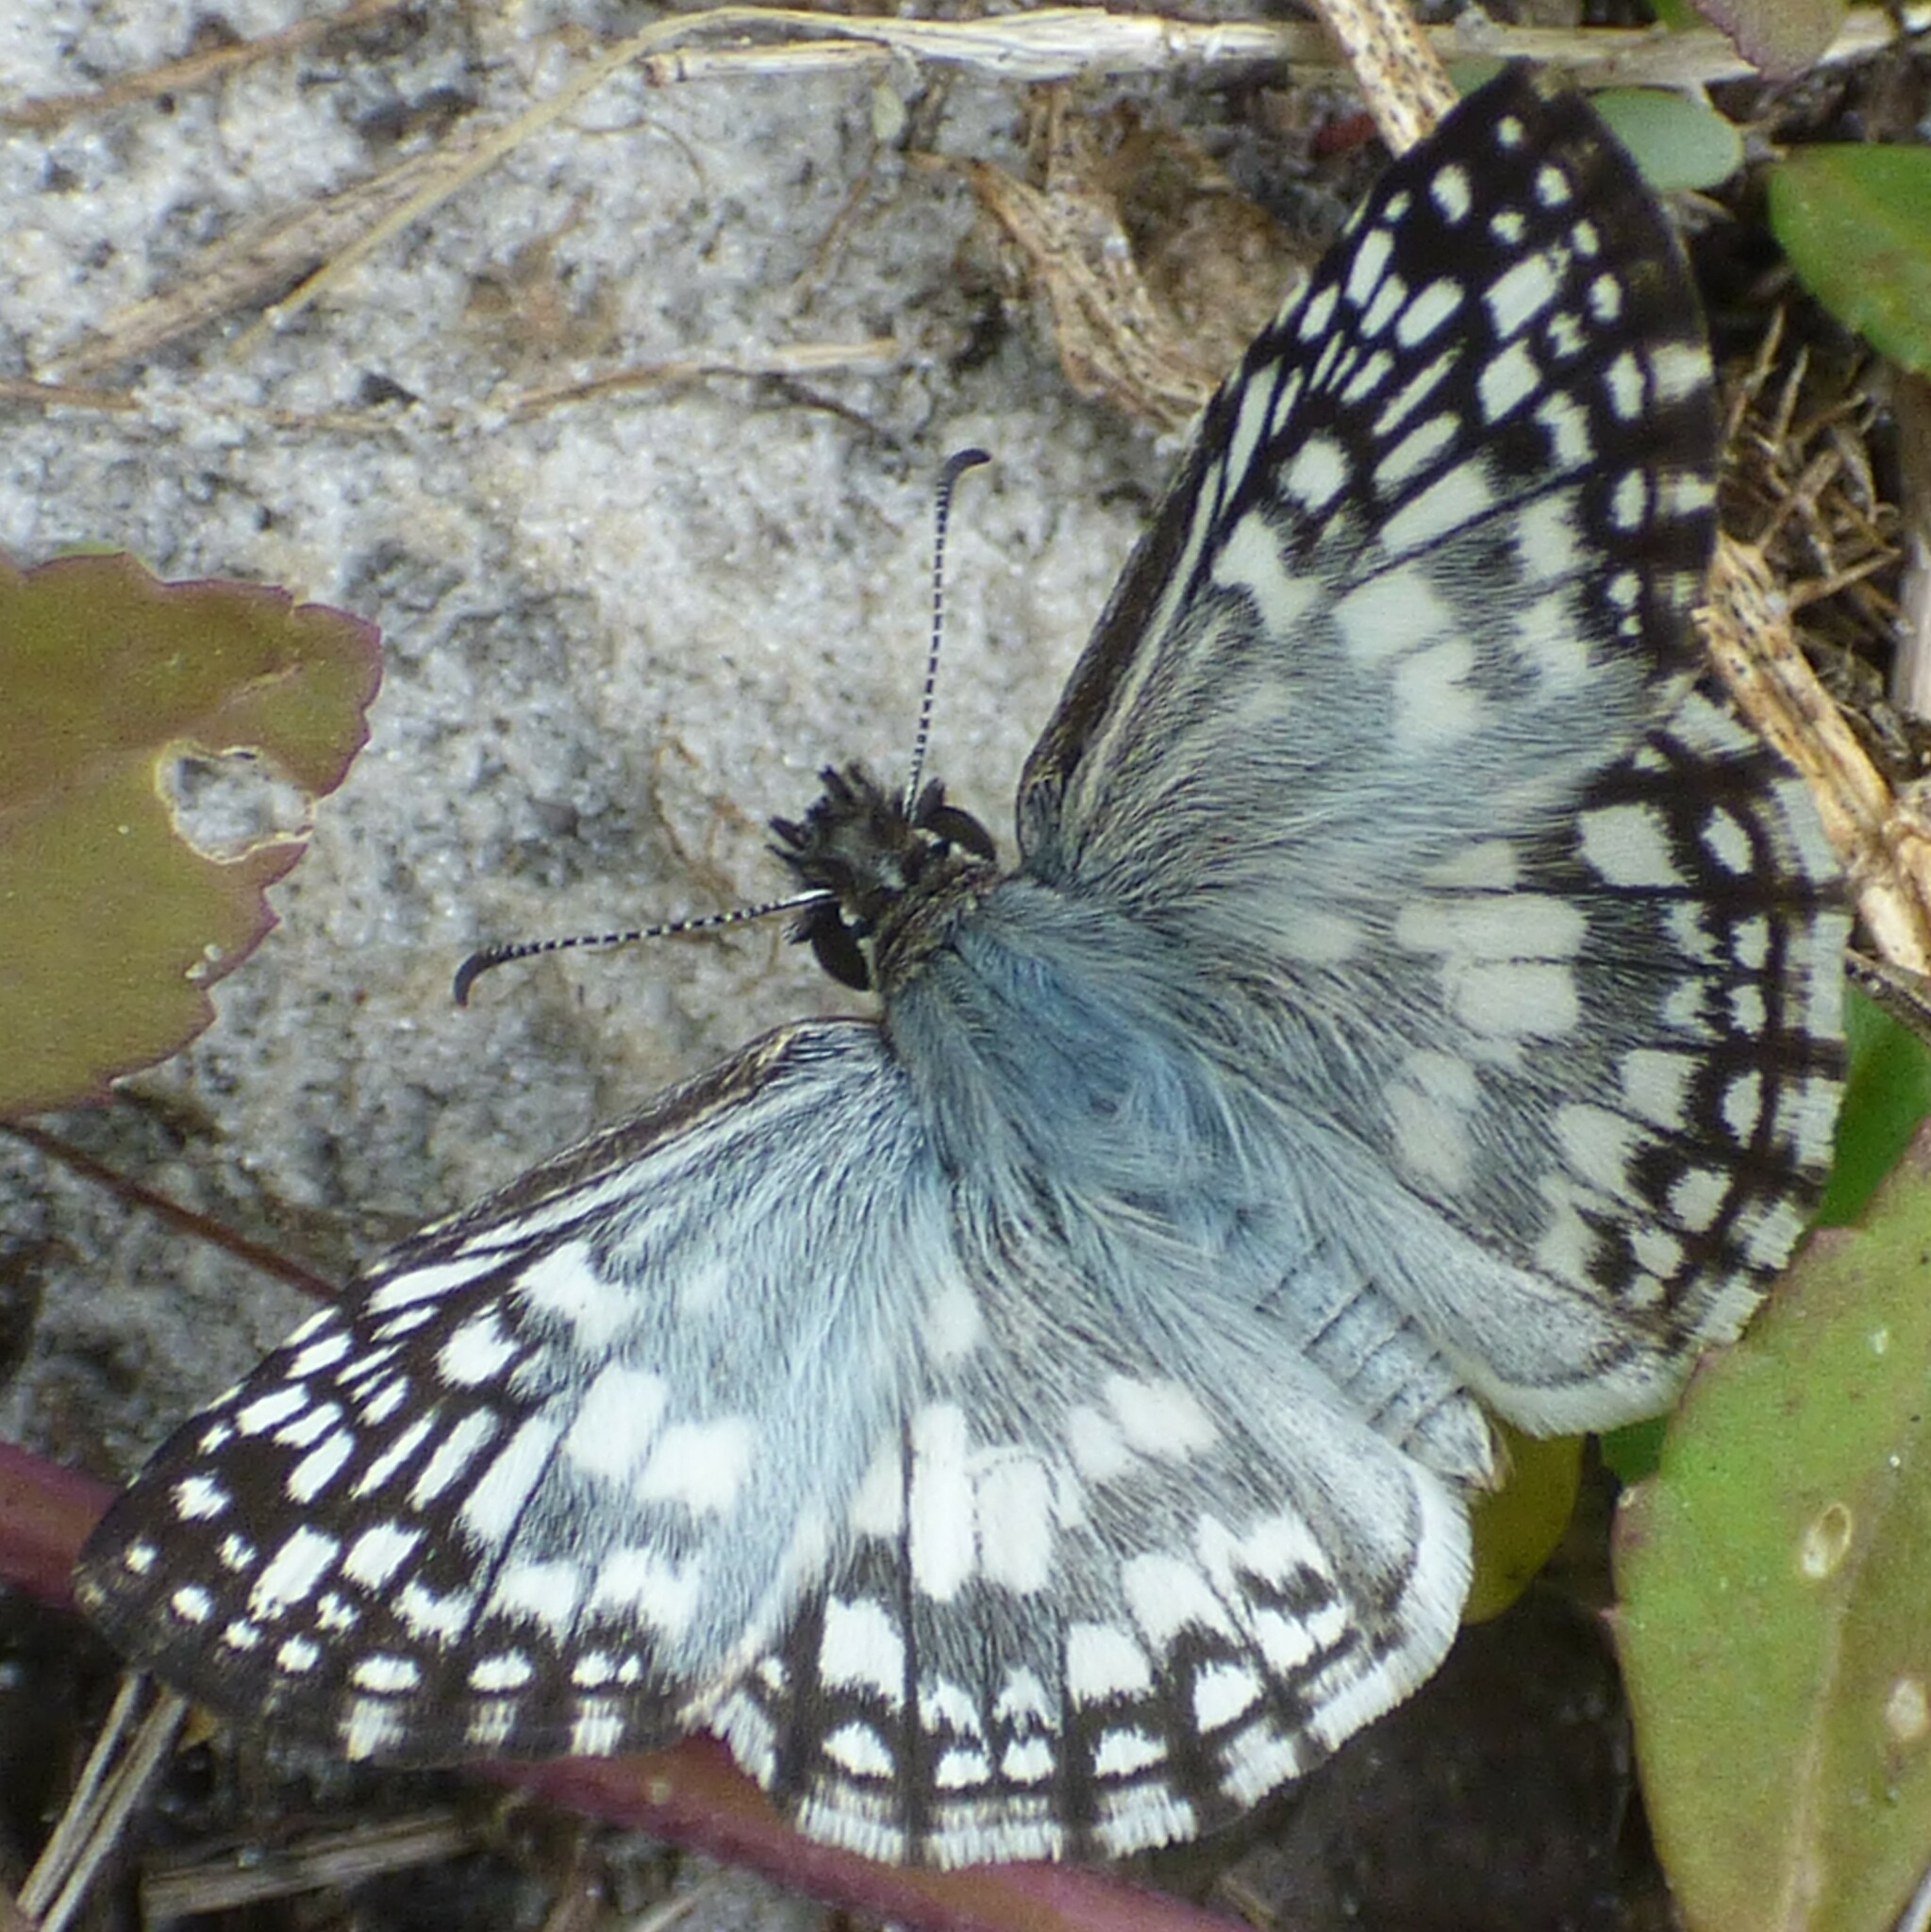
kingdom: Animalia
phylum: Arthropoda
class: Insecta
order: Lepidoptera
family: Hesperiidae
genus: Pyrgus
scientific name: Pyrgus oileus
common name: Tropical checkered-skipper
